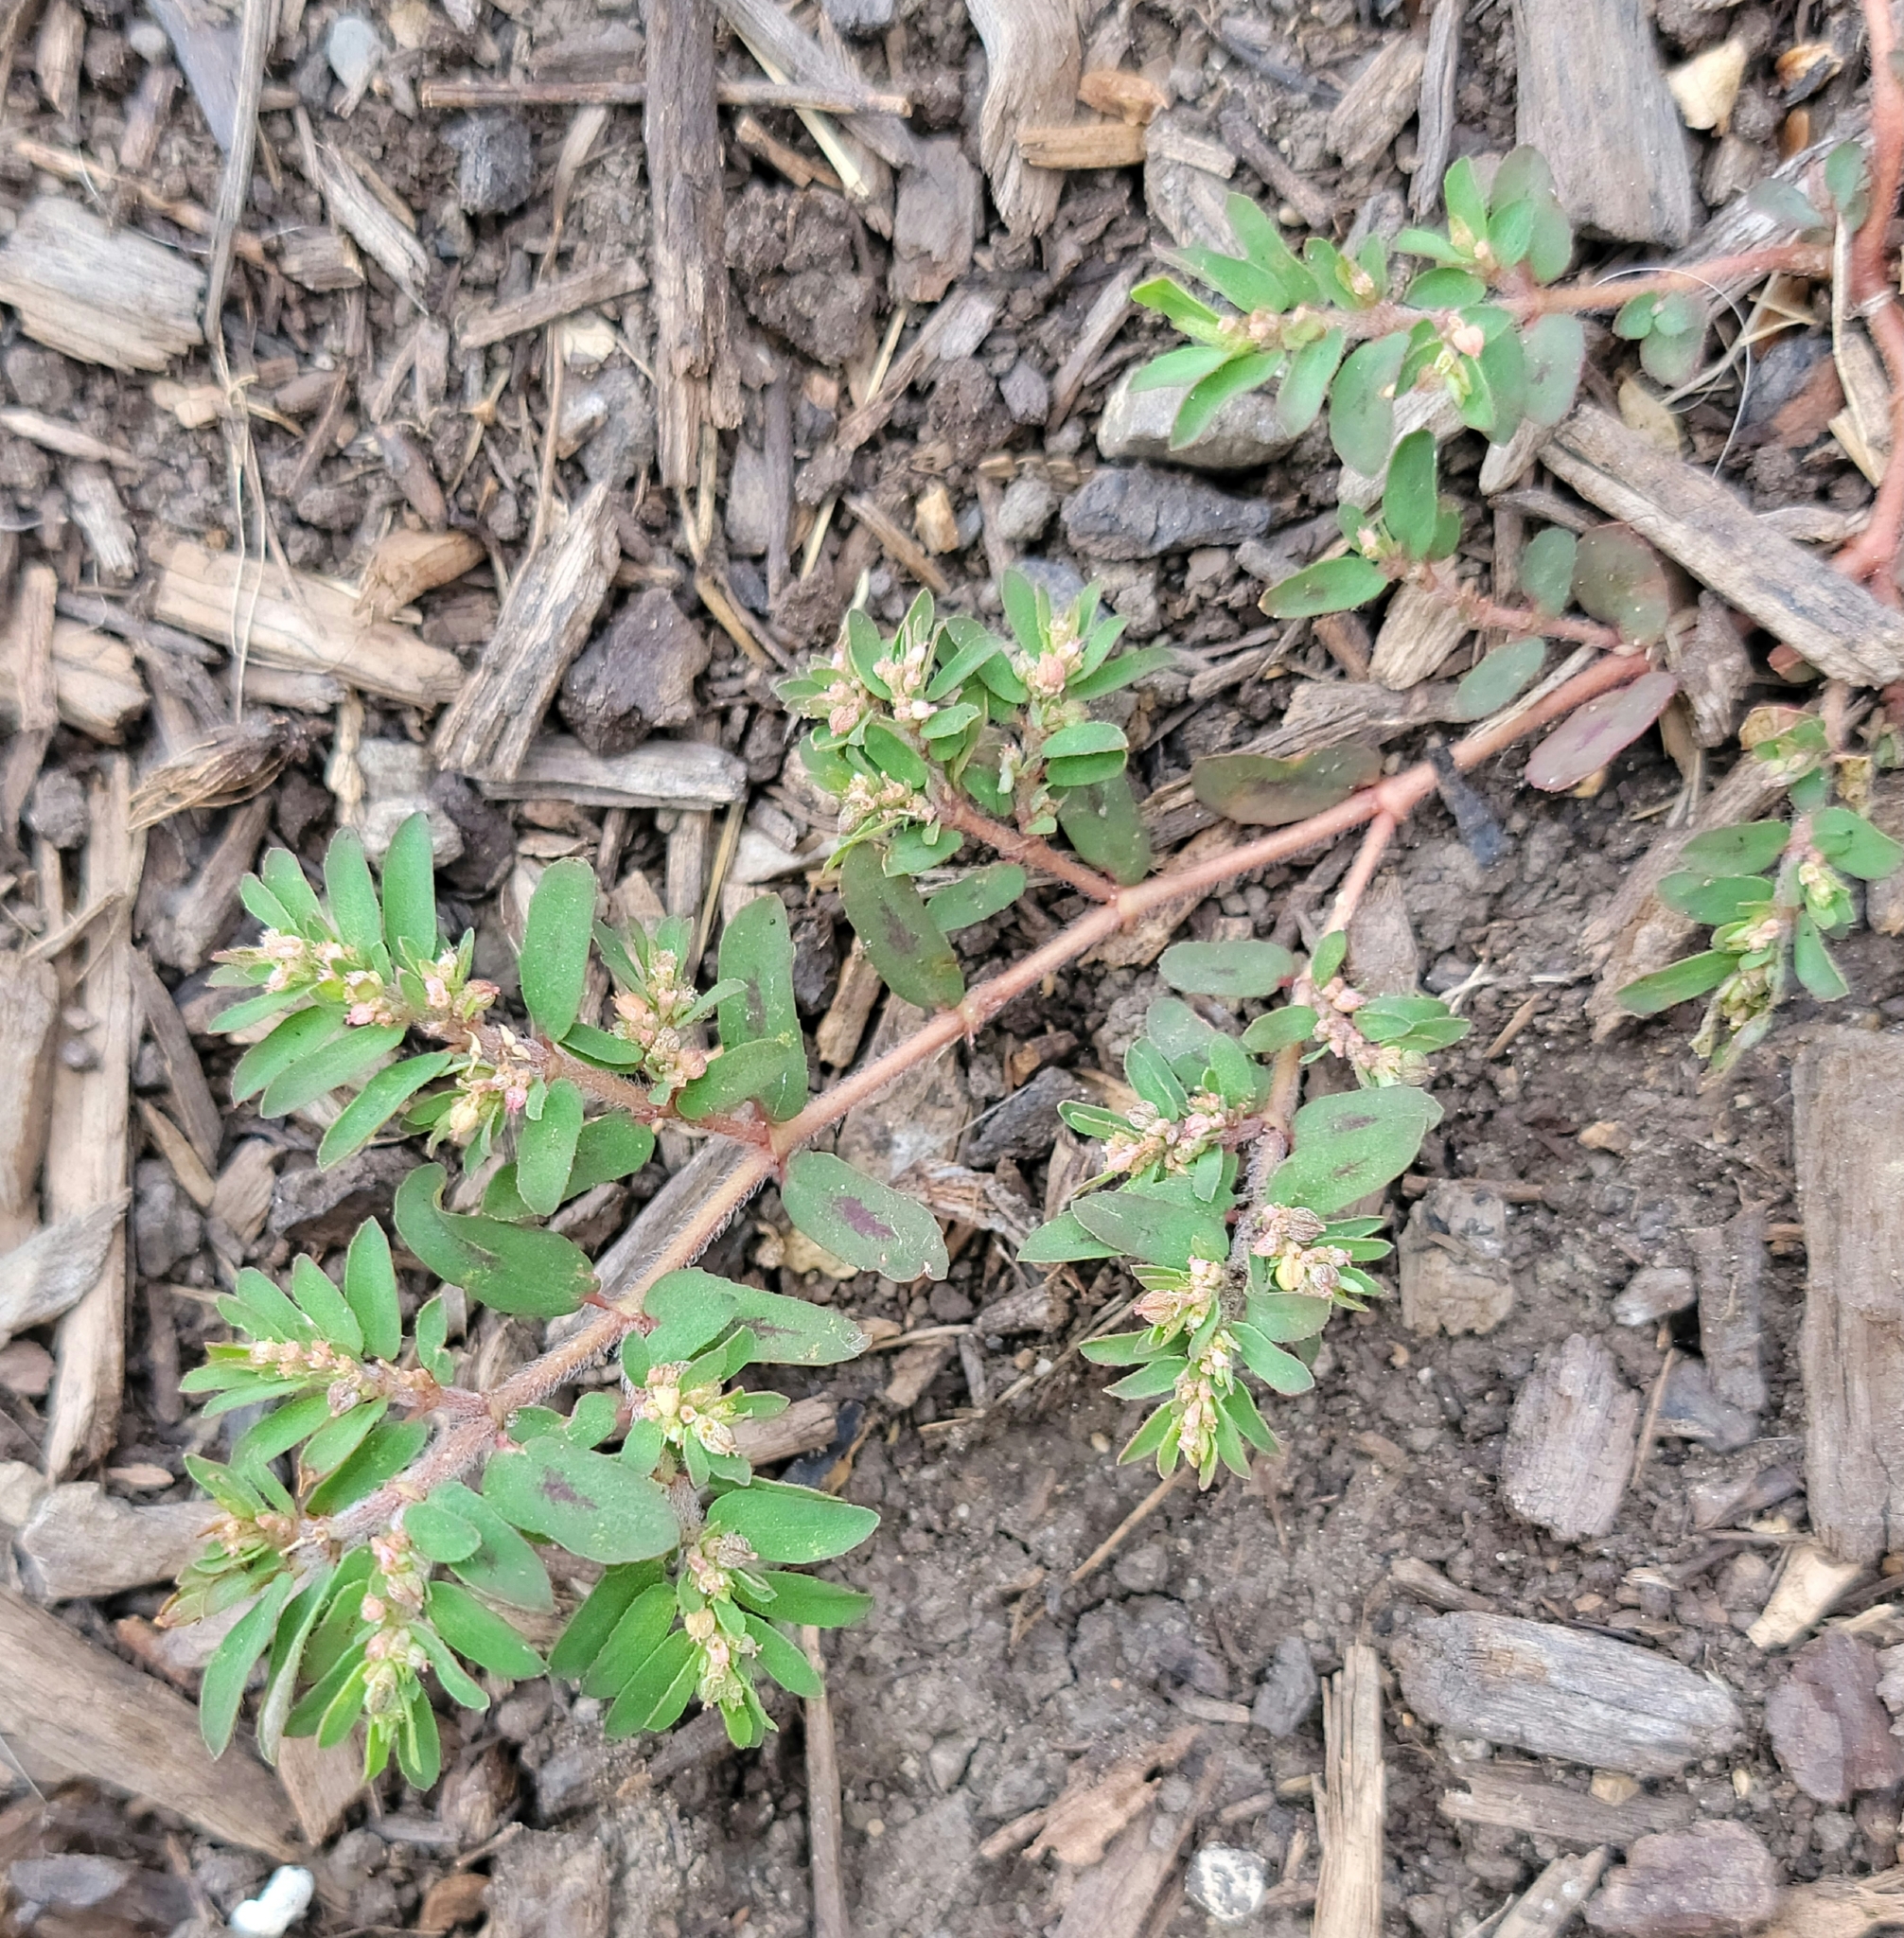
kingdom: Plantae
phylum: Tracheophyta
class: Magnoliopsida
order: Malpighiales
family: Euphorbiaceae
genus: Euphorbia
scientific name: Euphorbia maculata
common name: Spotted spurge
